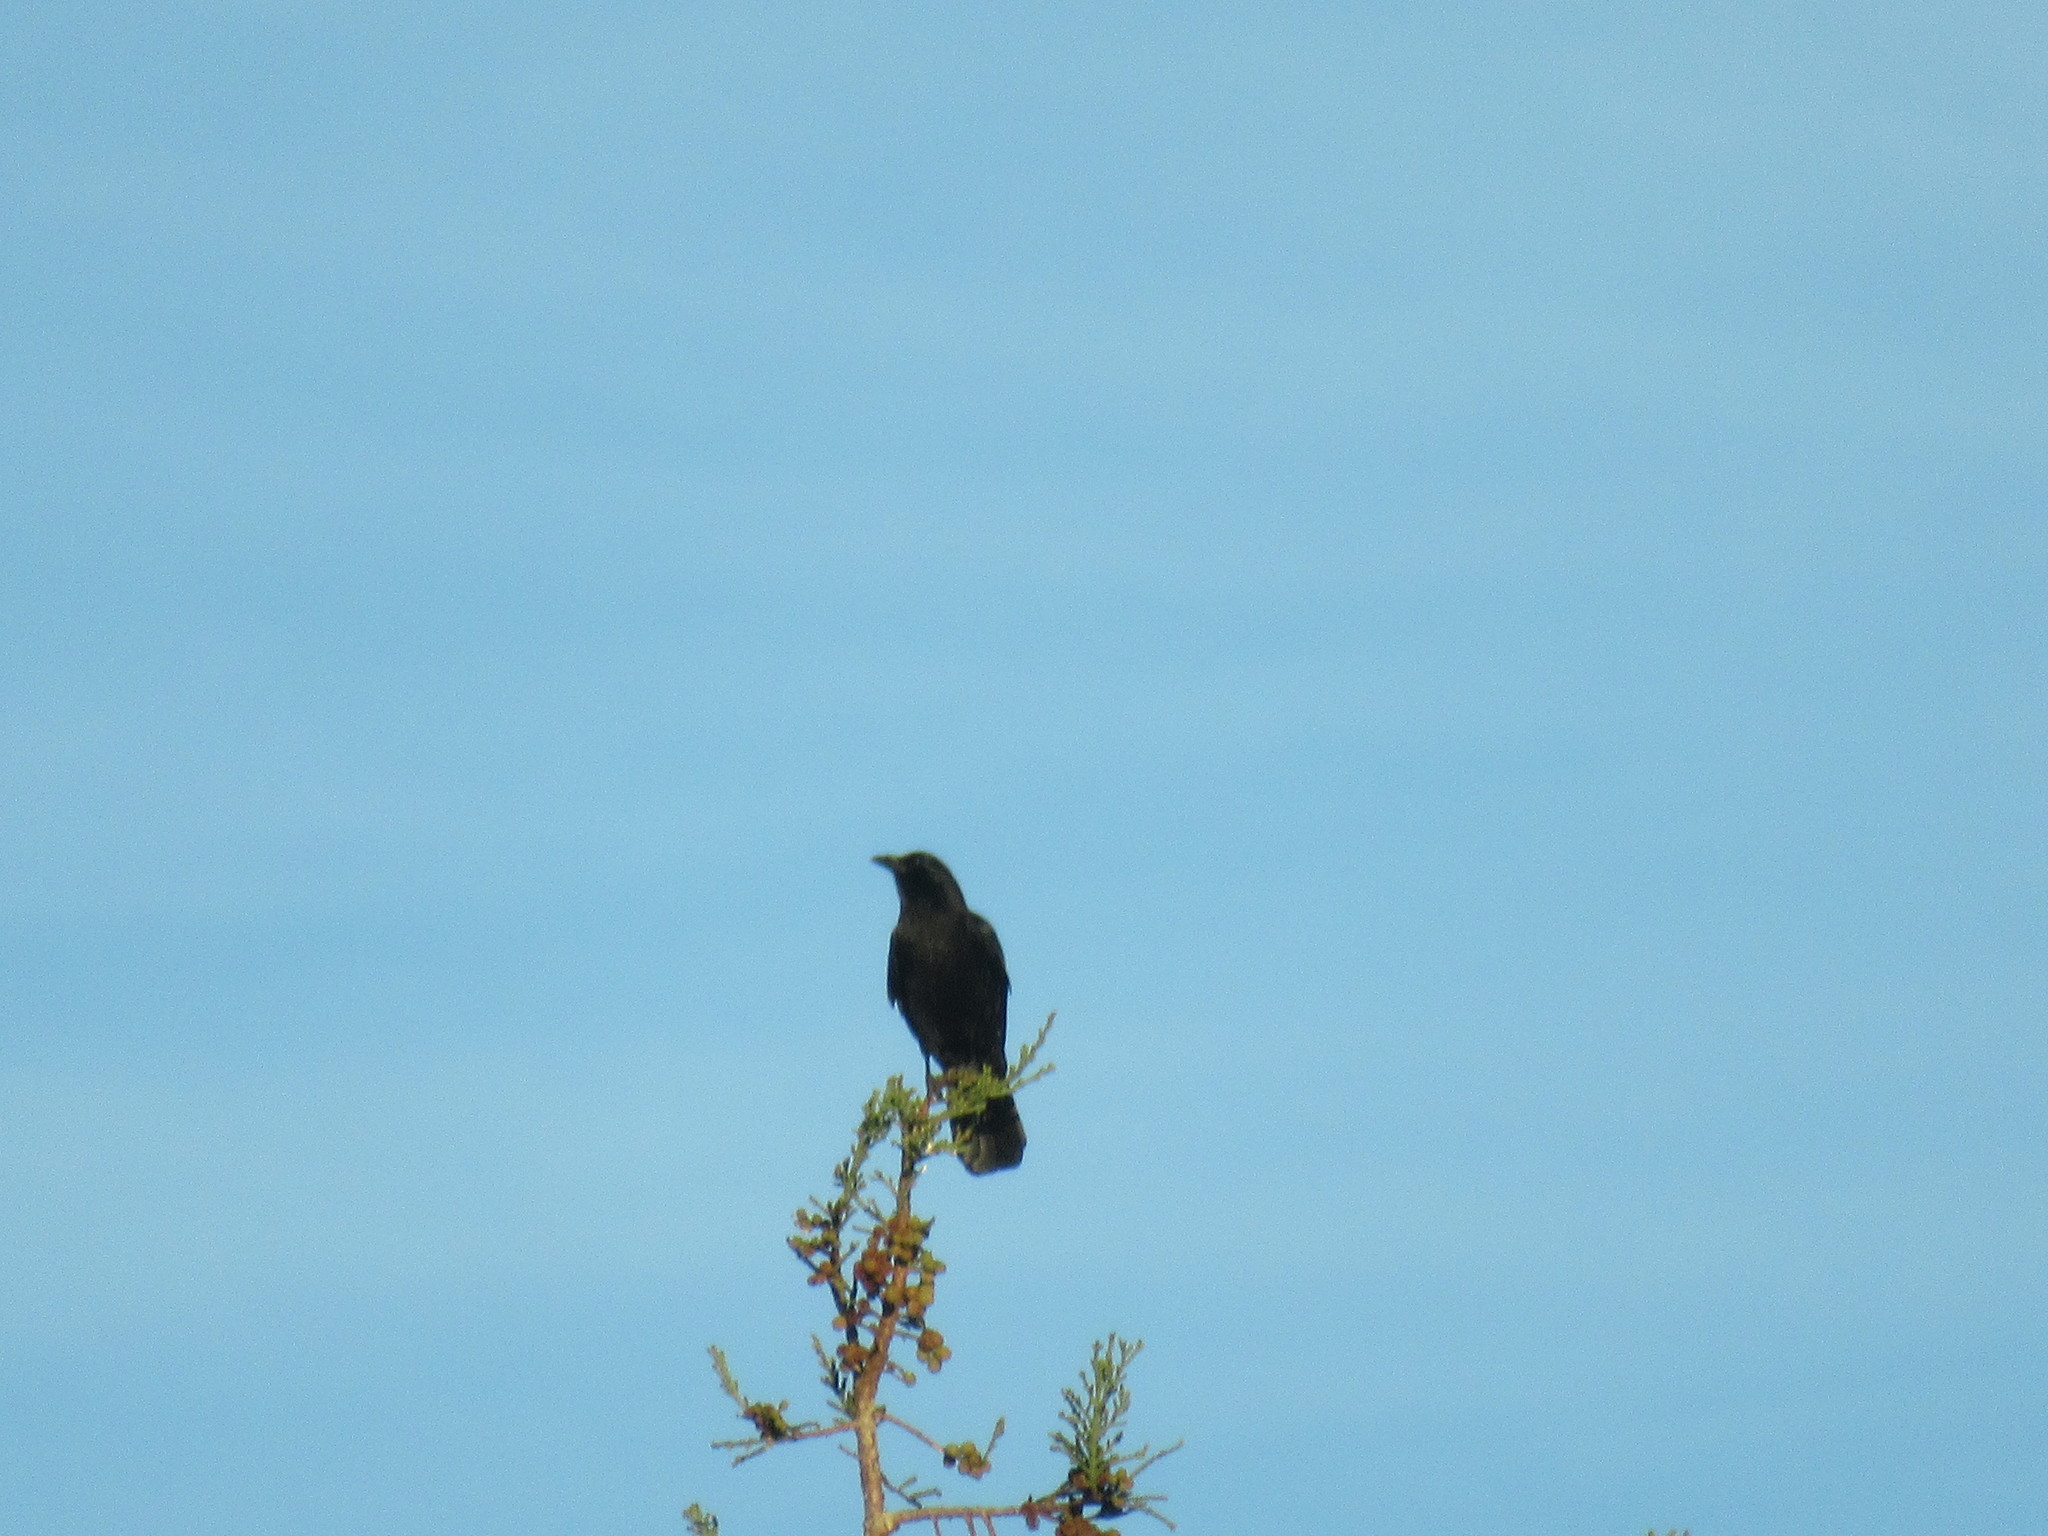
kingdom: Animalia
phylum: Chordata
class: Aves
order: Passeriformes
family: Corvidae
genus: Corvus
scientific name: Corvus brachyrhynchos
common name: American crow
